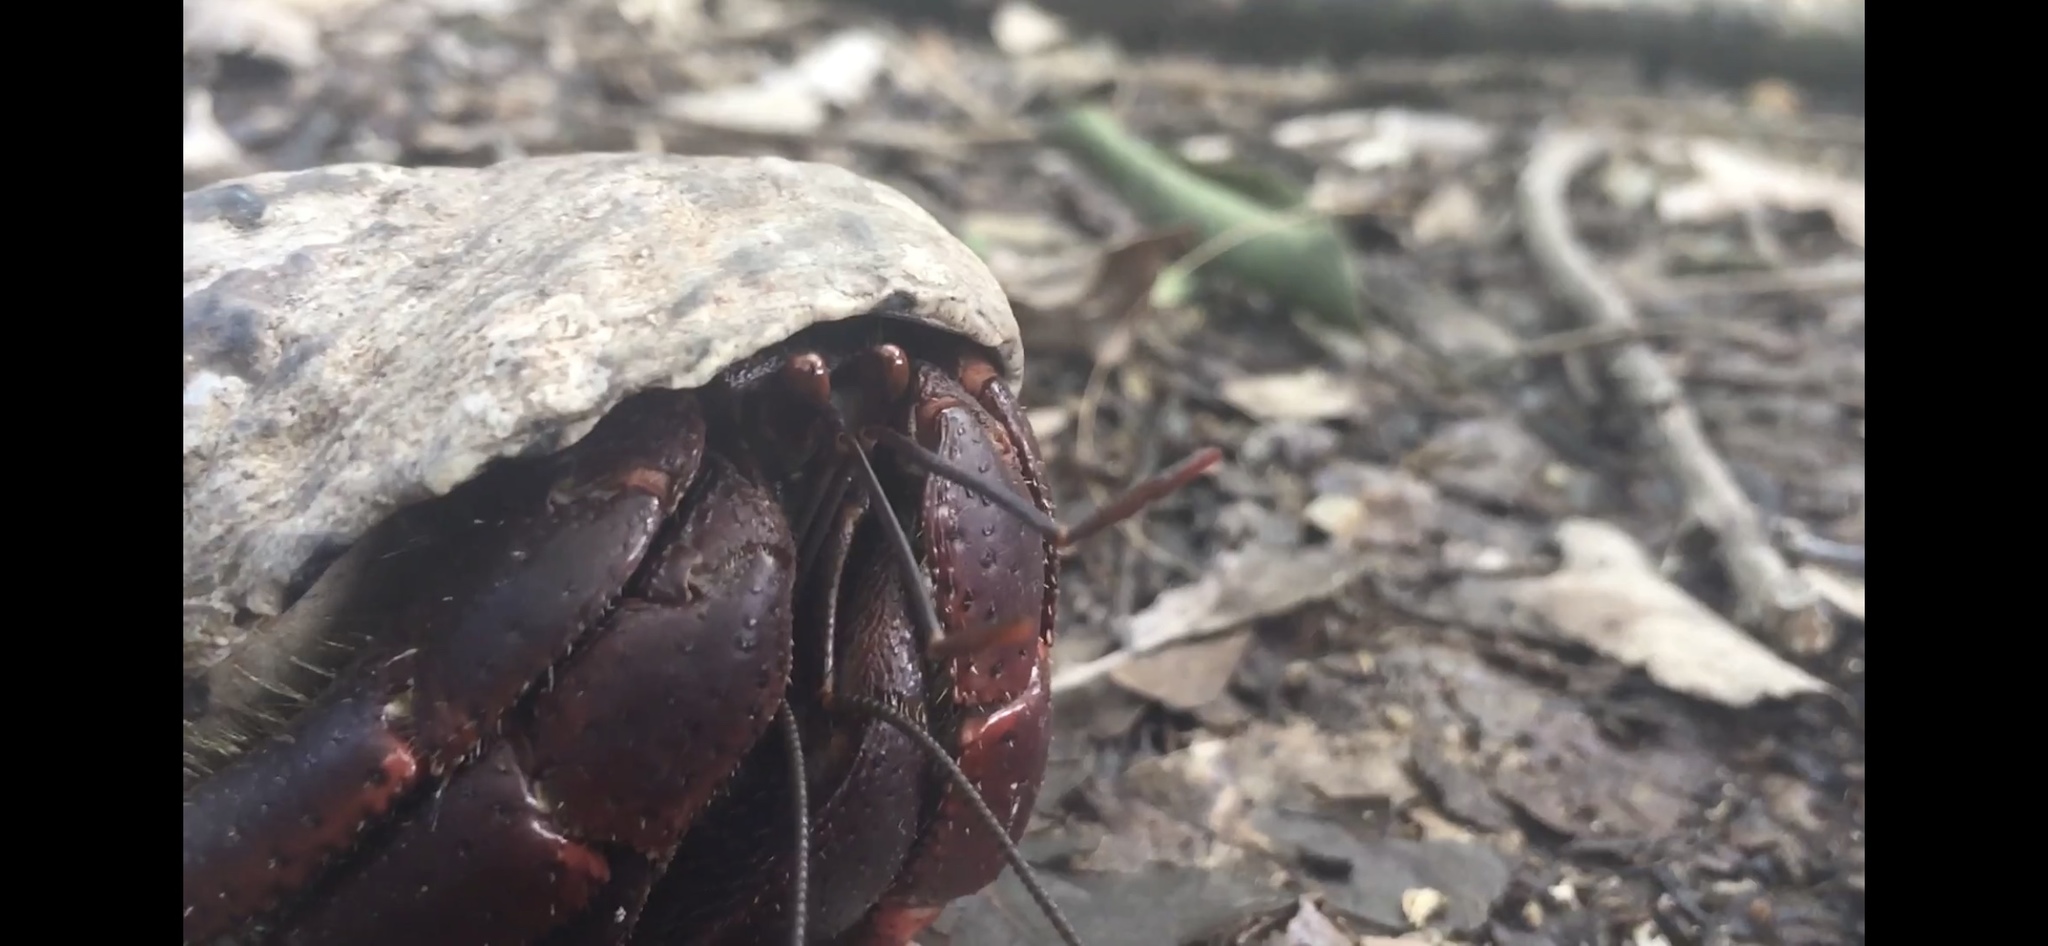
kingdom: Animalia
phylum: Arthropoda
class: Malacostraca
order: Decapoda
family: Coenobitidae
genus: Coenobita
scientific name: Coenobita clypeatus
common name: Caribbean hermit crab
